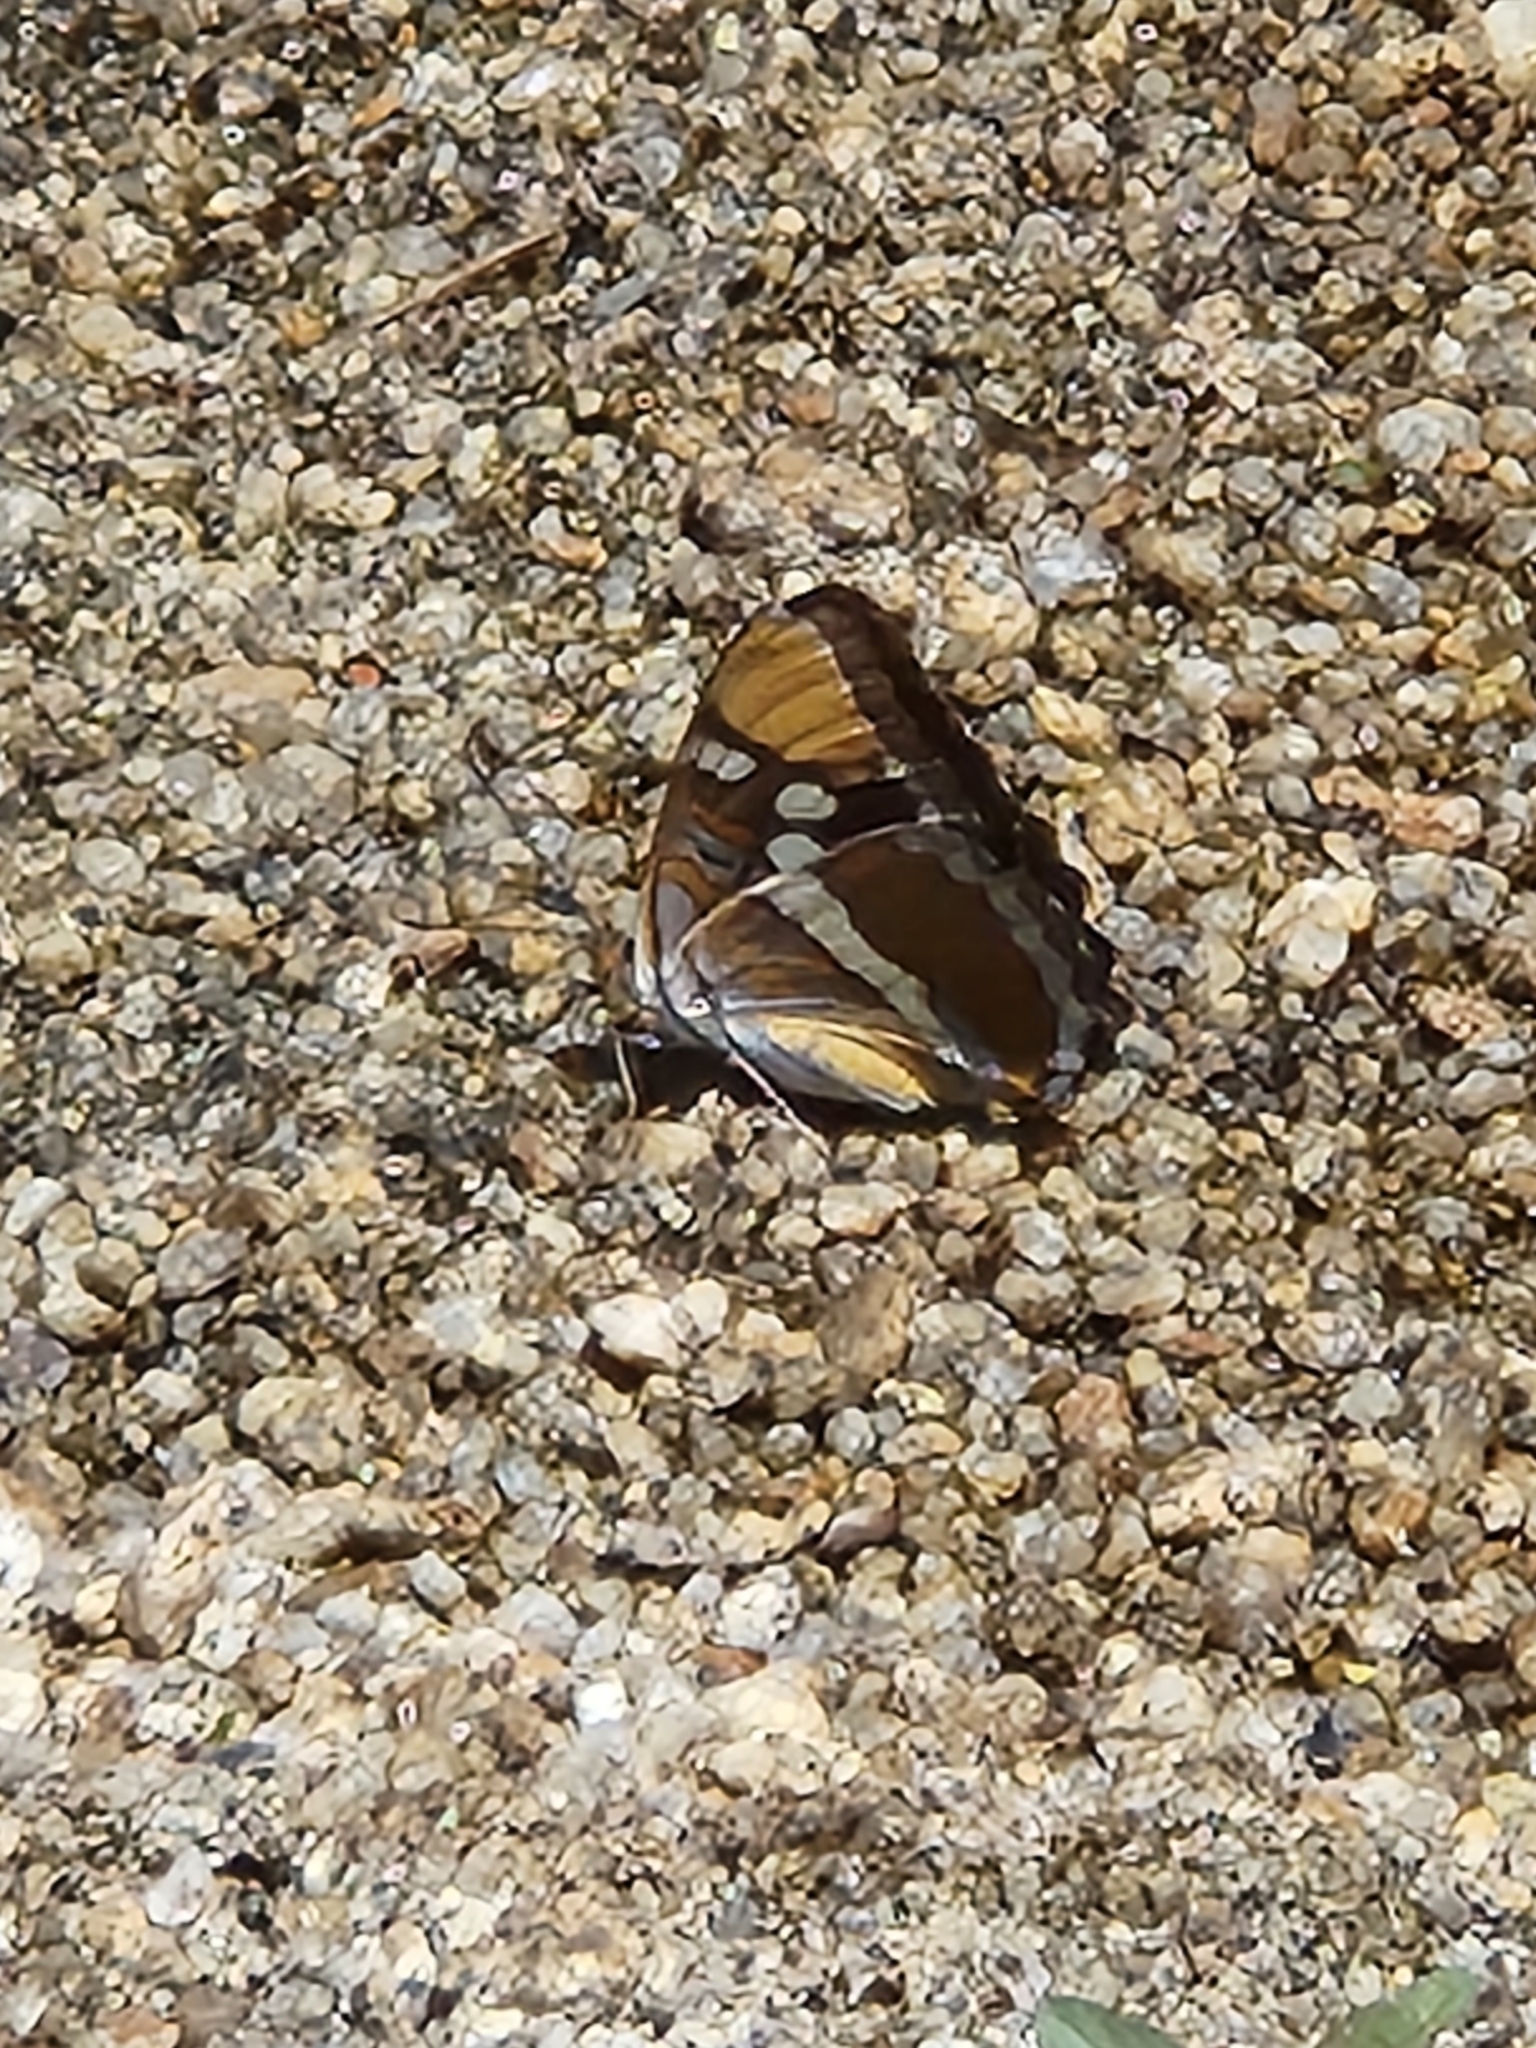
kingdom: Animalia
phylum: Arthropoda
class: Insecta
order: Lepidoptera
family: Nymphalidae
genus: Limenitis
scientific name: Limenitis bredowii
